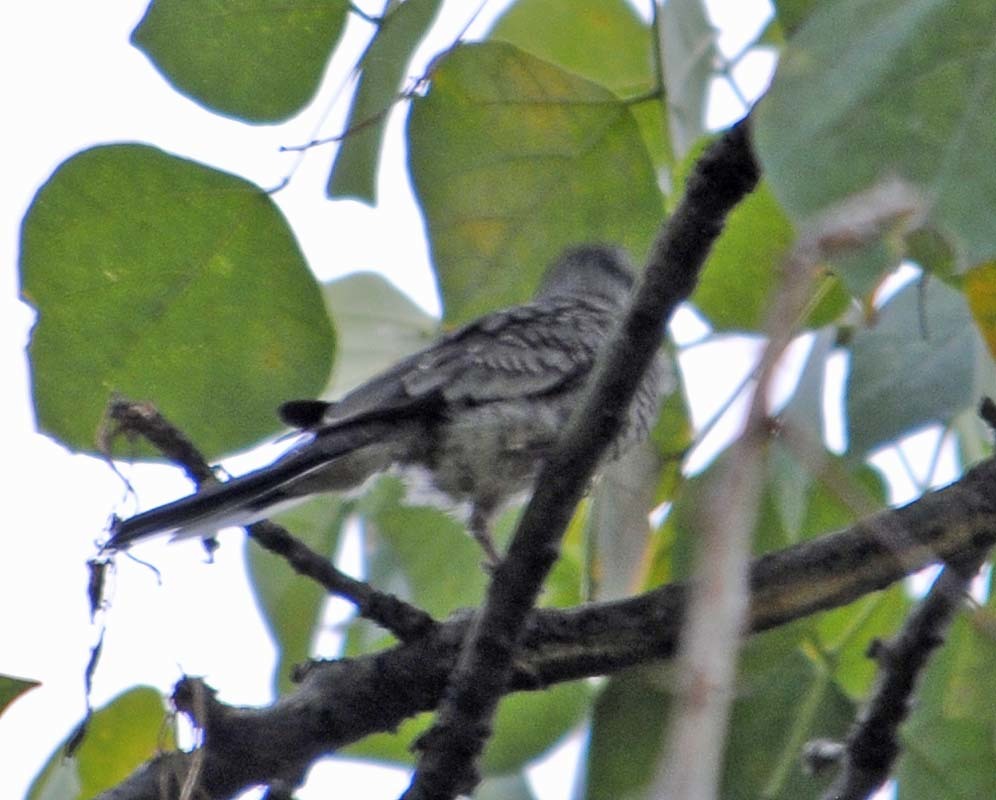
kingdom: Animalia
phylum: Chordata
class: Aves
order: Columbiformes
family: Columbidae
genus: Columbina
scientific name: Columbina inca
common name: Inca dove
